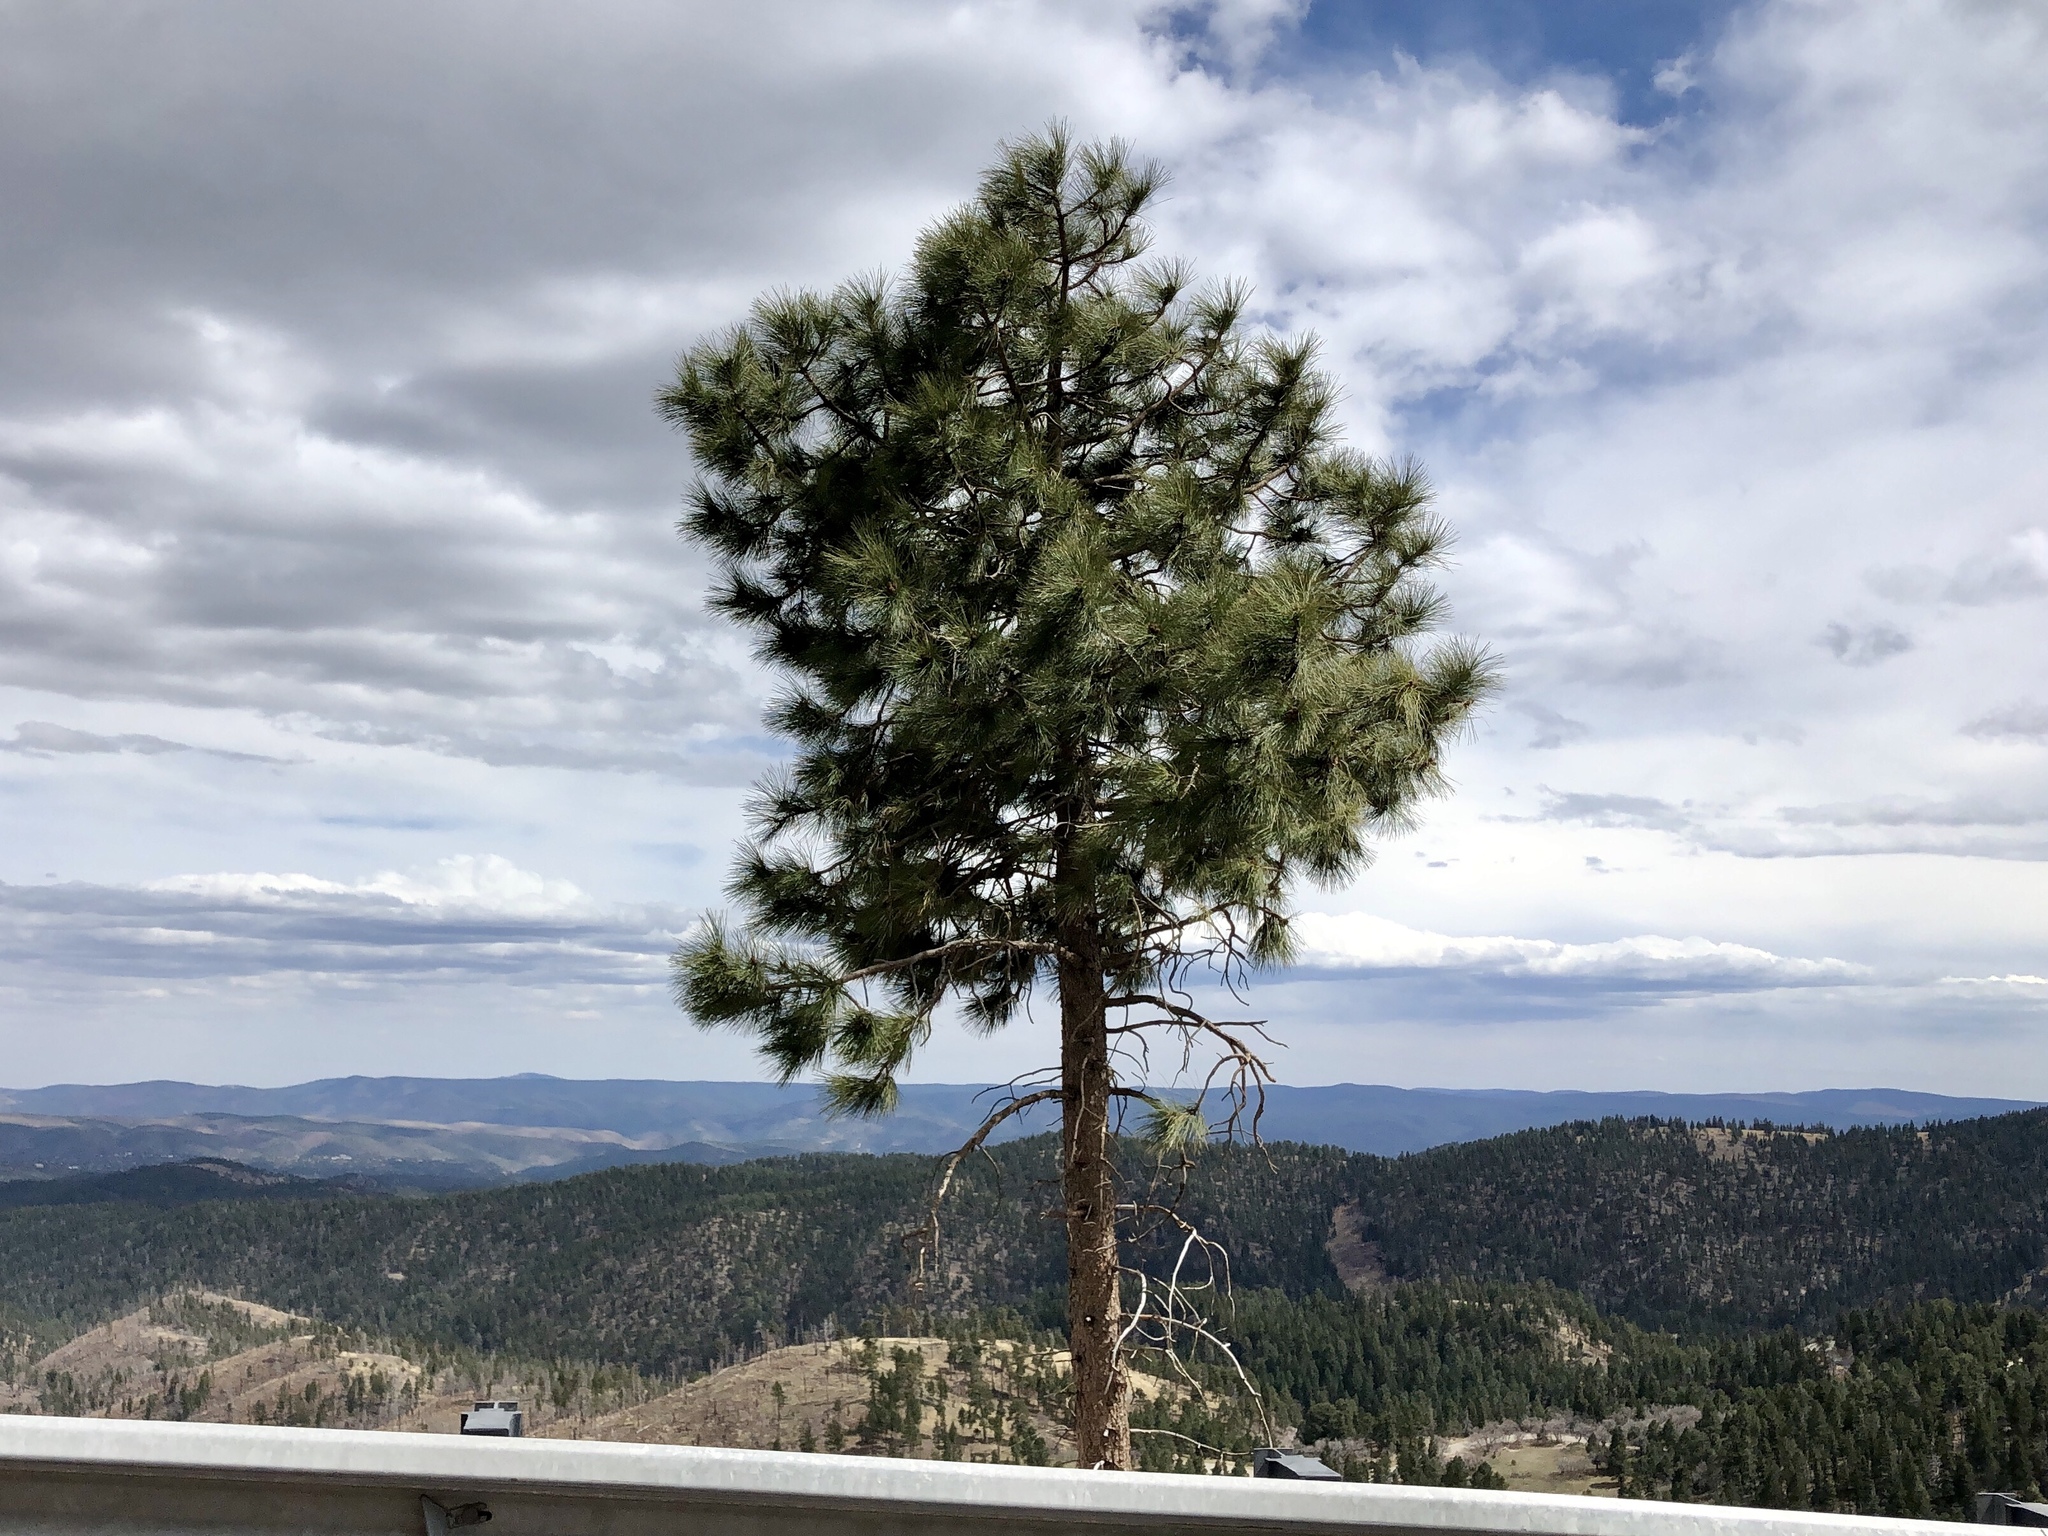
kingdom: Plantae
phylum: Tracheophyta
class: Pinopsida
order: Pinales
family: Pinaceae
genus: Pinus
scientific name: Pinus ponderosa
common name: Western yellow-pine
